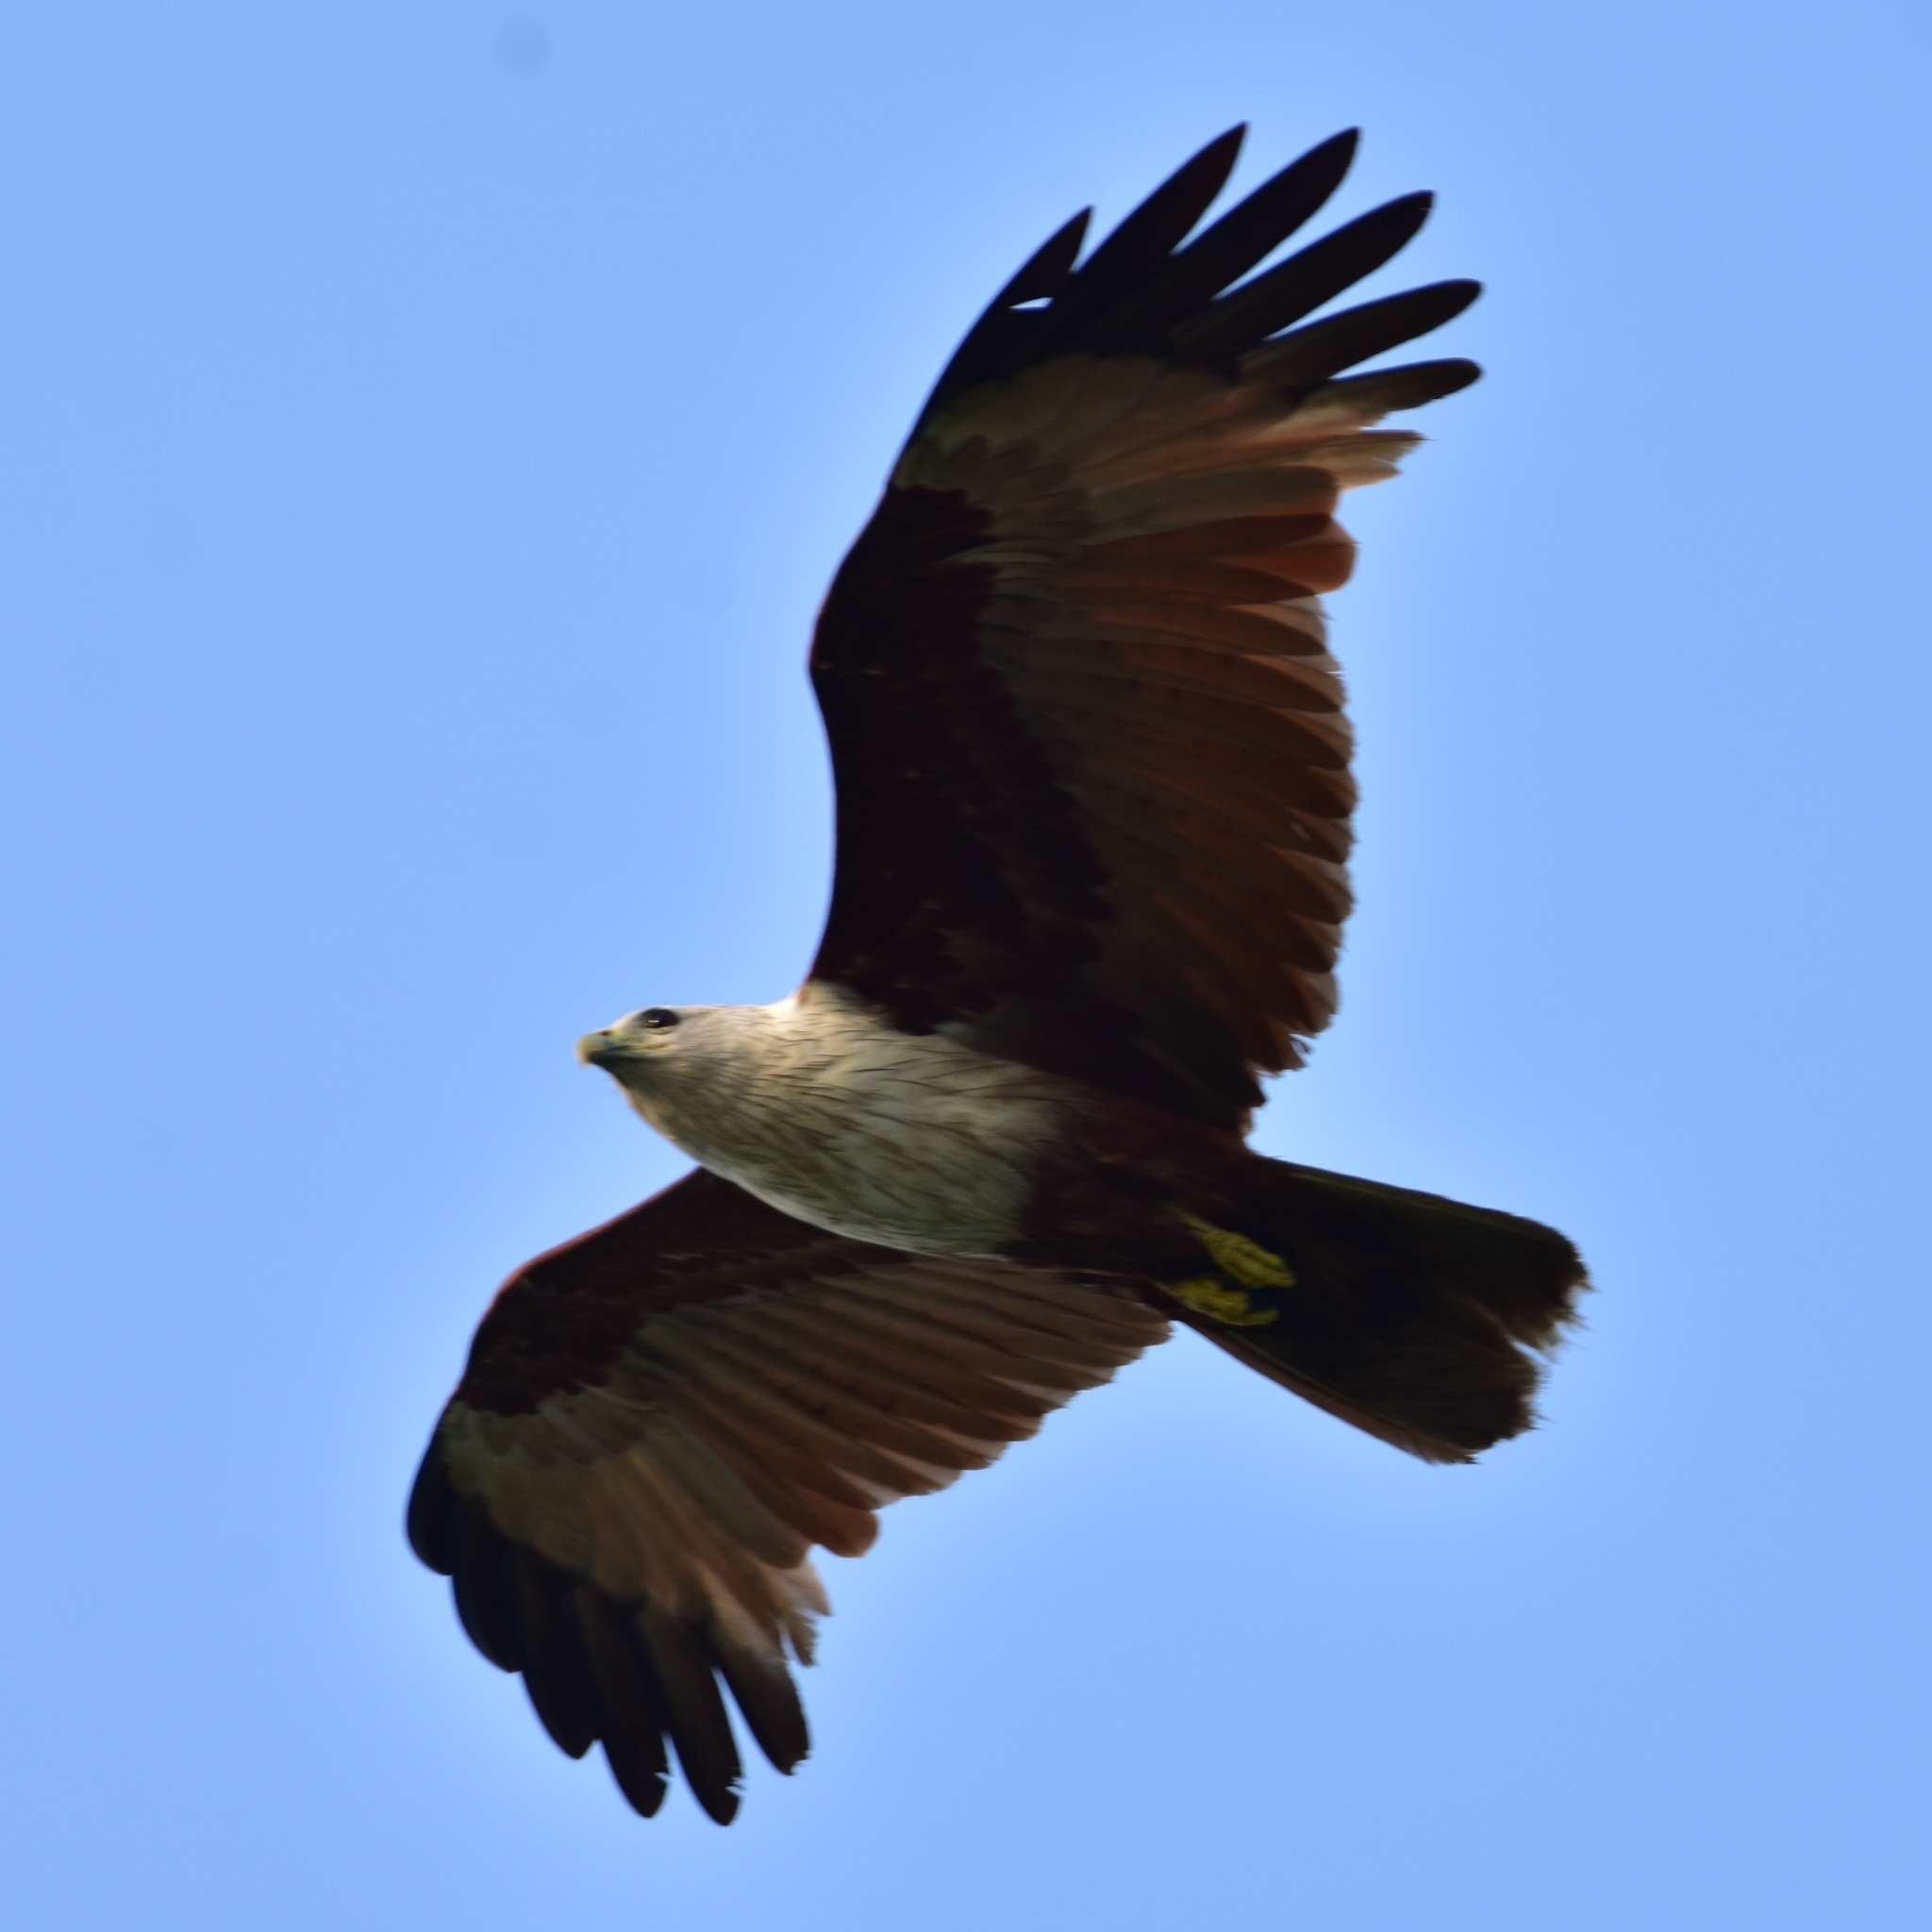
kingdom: Animalia
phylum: Chordata
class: Aves
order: Accipitriformes
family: Accipitridae
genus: Haliastur
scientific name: Haliastur indus
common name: Brahminy kite
